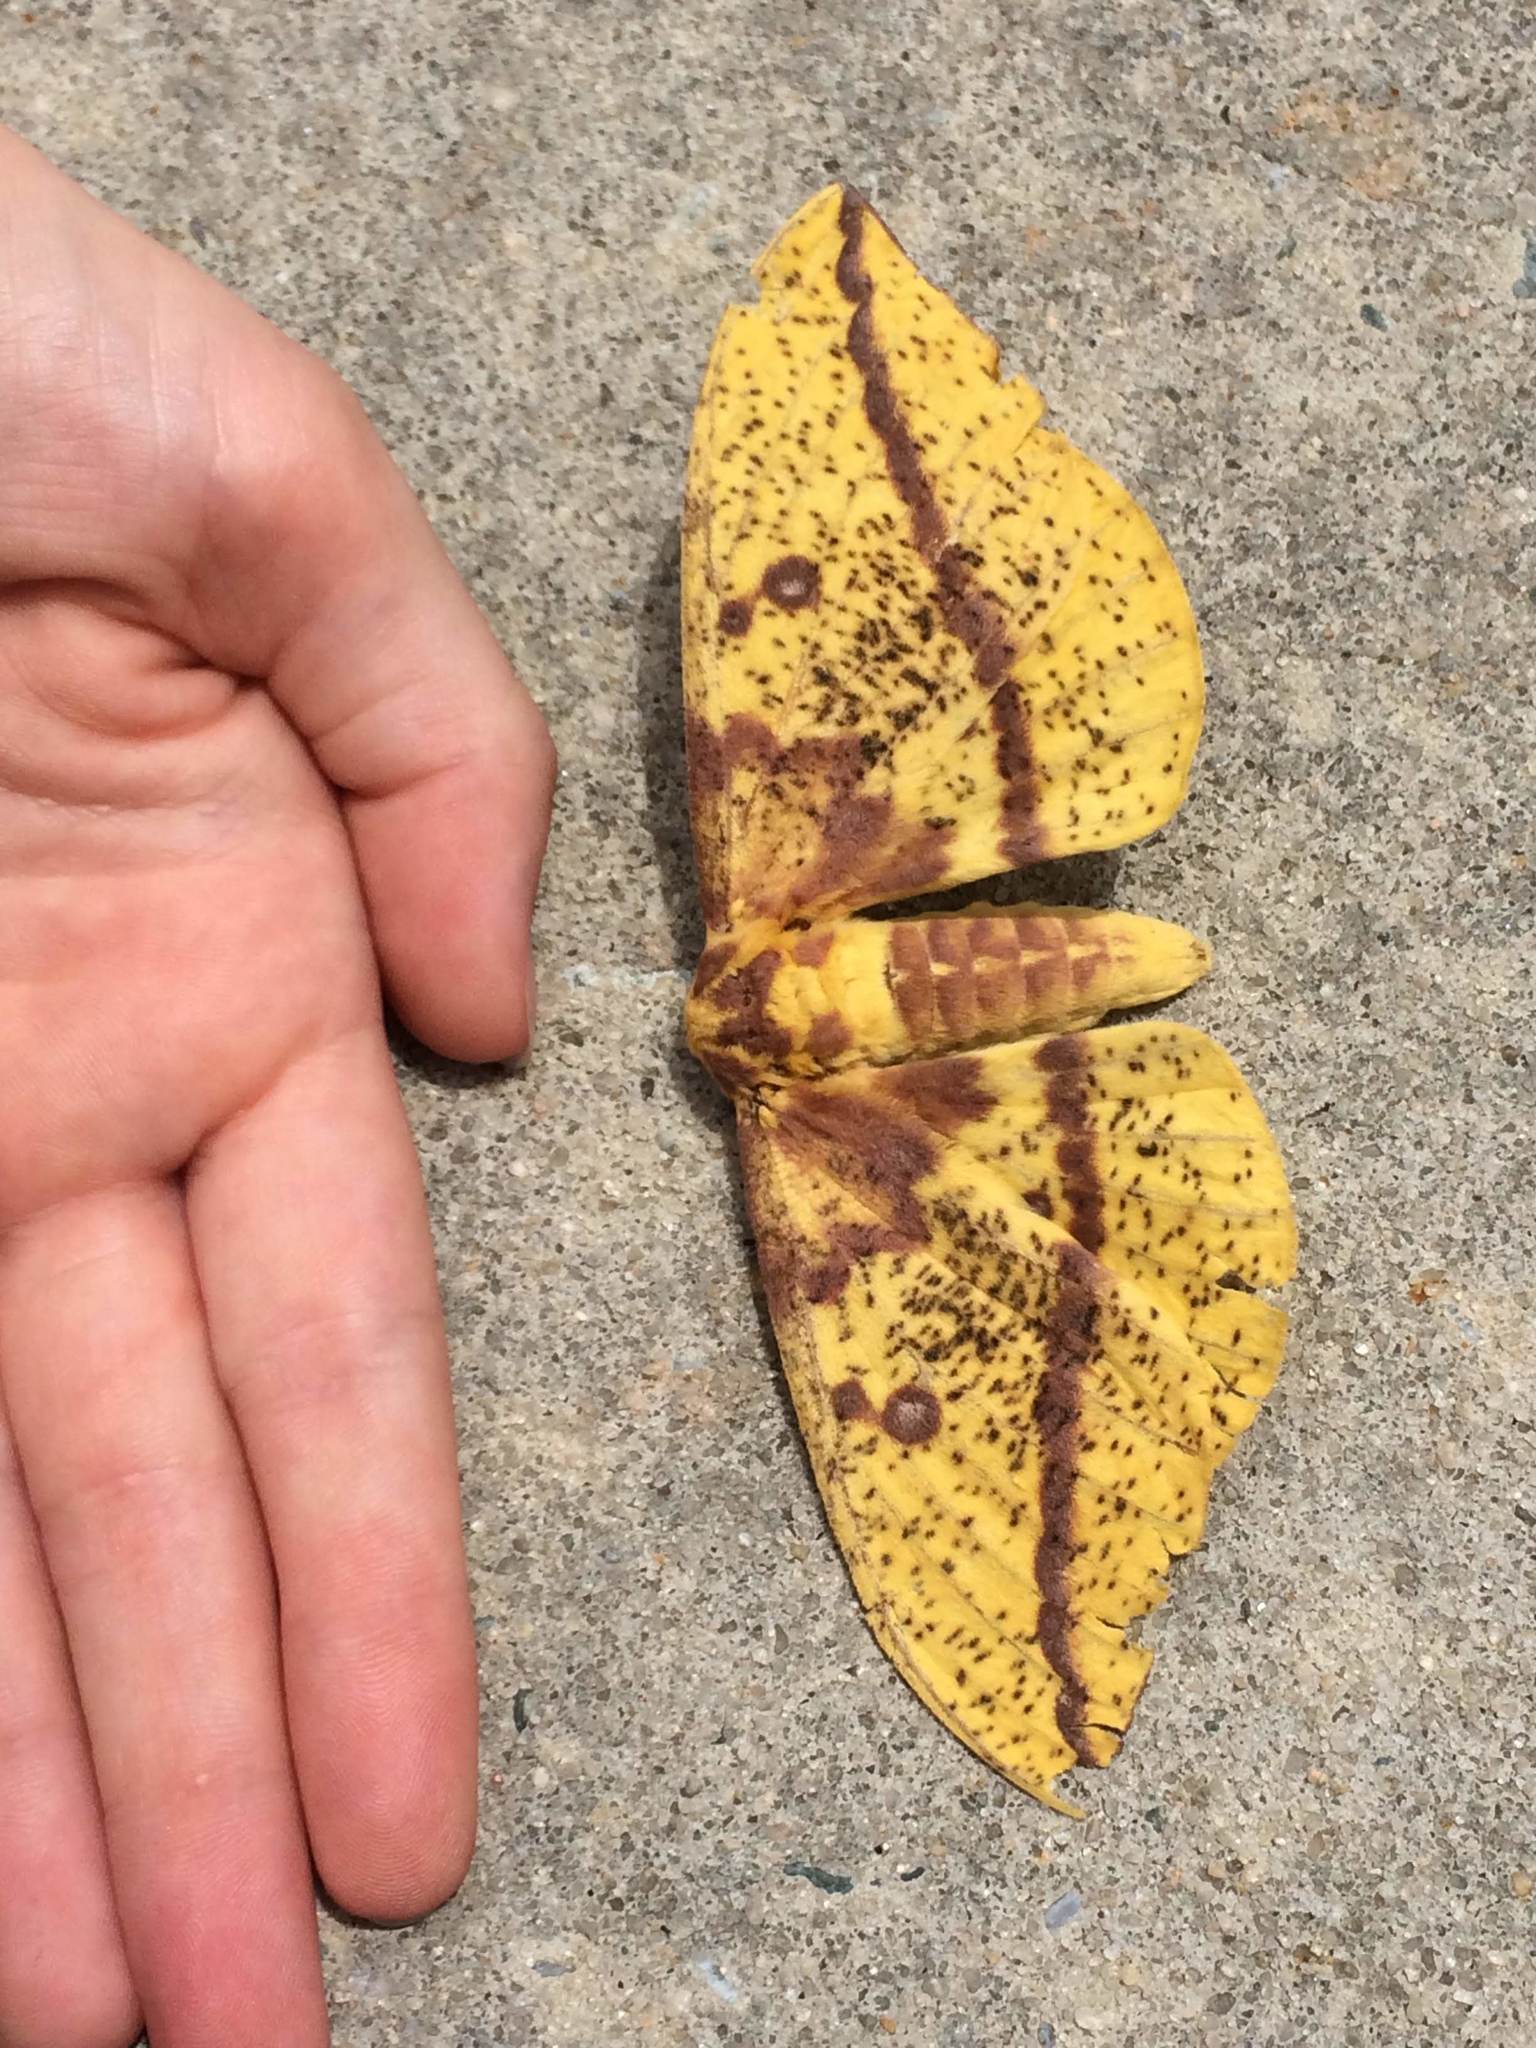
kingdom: Animalia
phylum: Arthropoda
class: Insecta
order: Lepidoptera
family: Saturniidae
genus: Eacles
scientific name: Eacles imperialis
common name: Imperial moth
